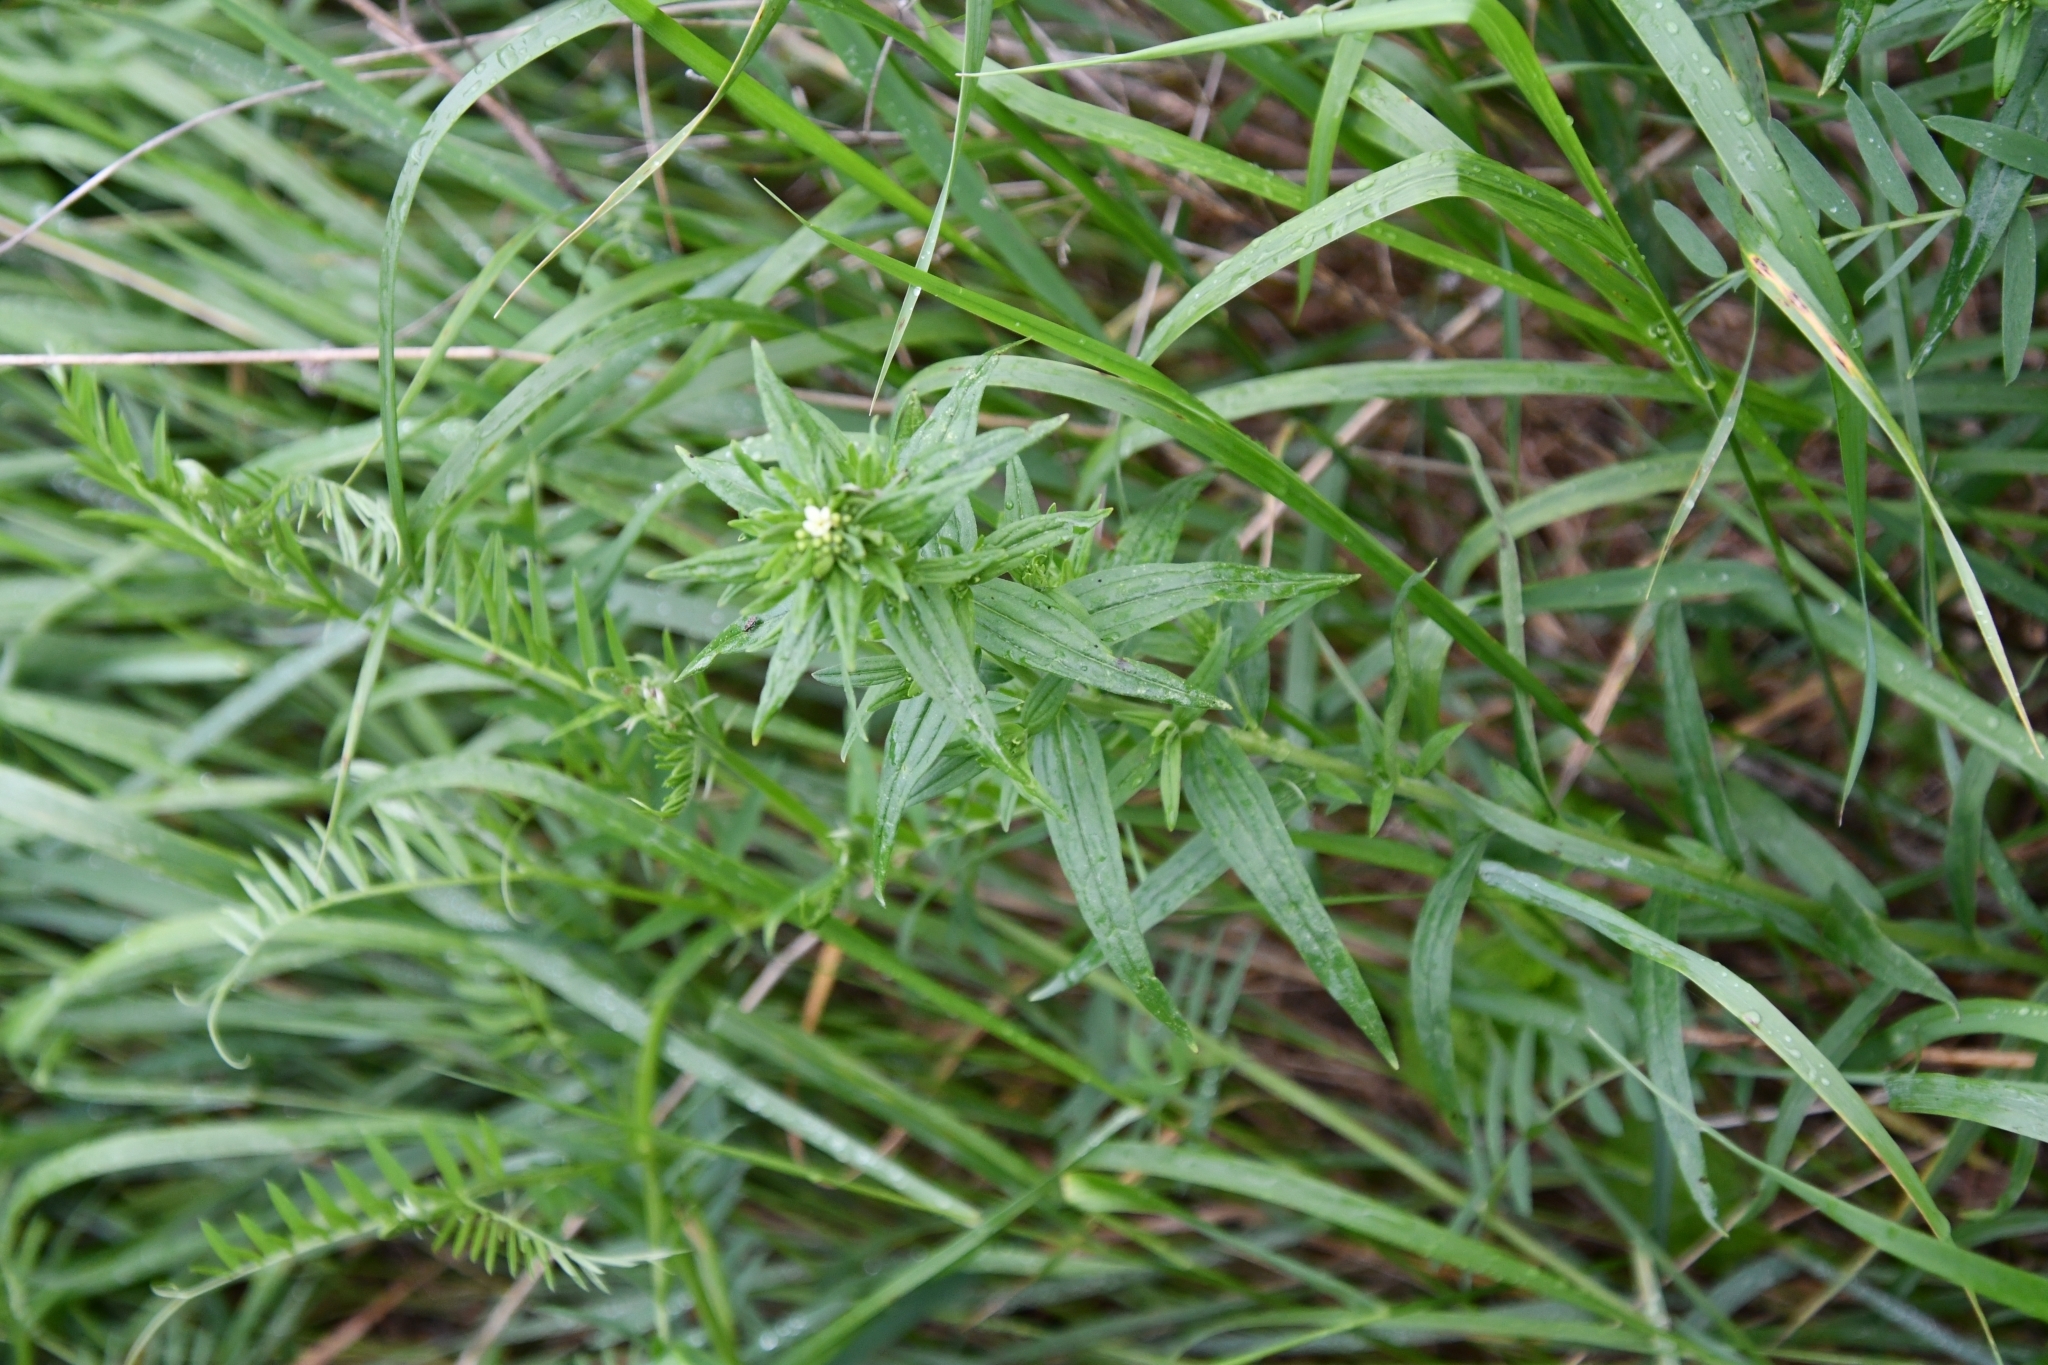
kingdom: Plantae
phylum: Tracheophyta
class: Magnoliopsida
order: Boraginales
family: Boraginaceae
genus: Lithospermum
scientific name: Lithospermum officinale
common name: Common gromwell
